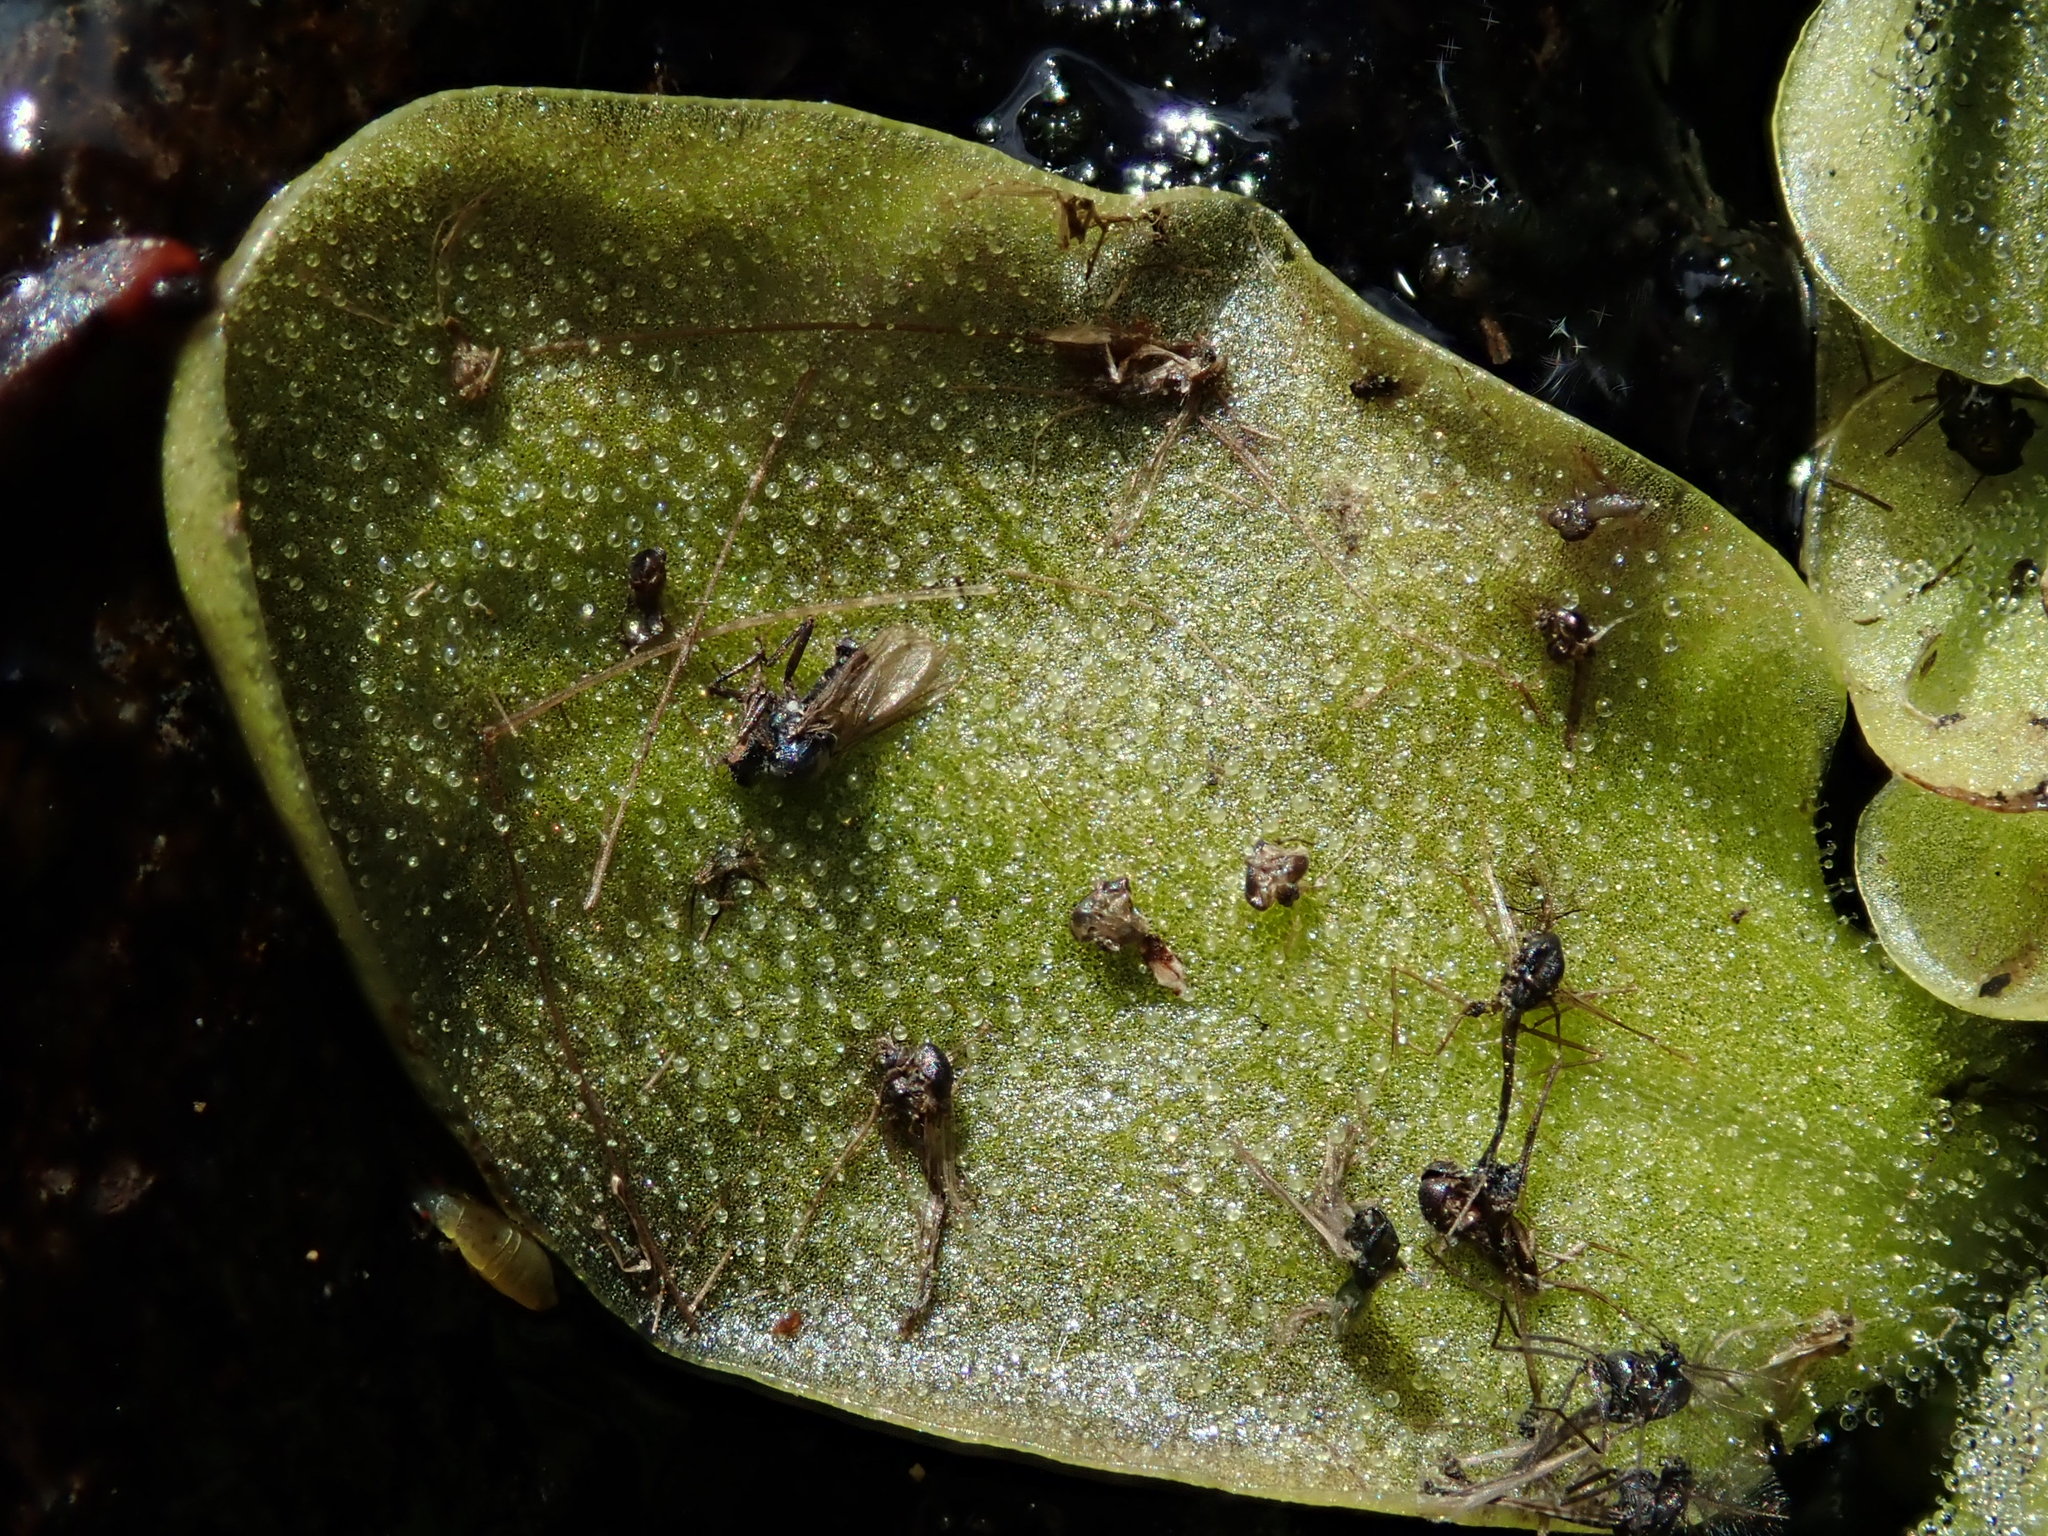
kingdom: Plantae
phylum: Tracheophyta
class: Magnoliopsida
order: Lamiales
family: Lentibulariaceae
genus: Pinguicula
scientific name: Pinguicula macroceras
